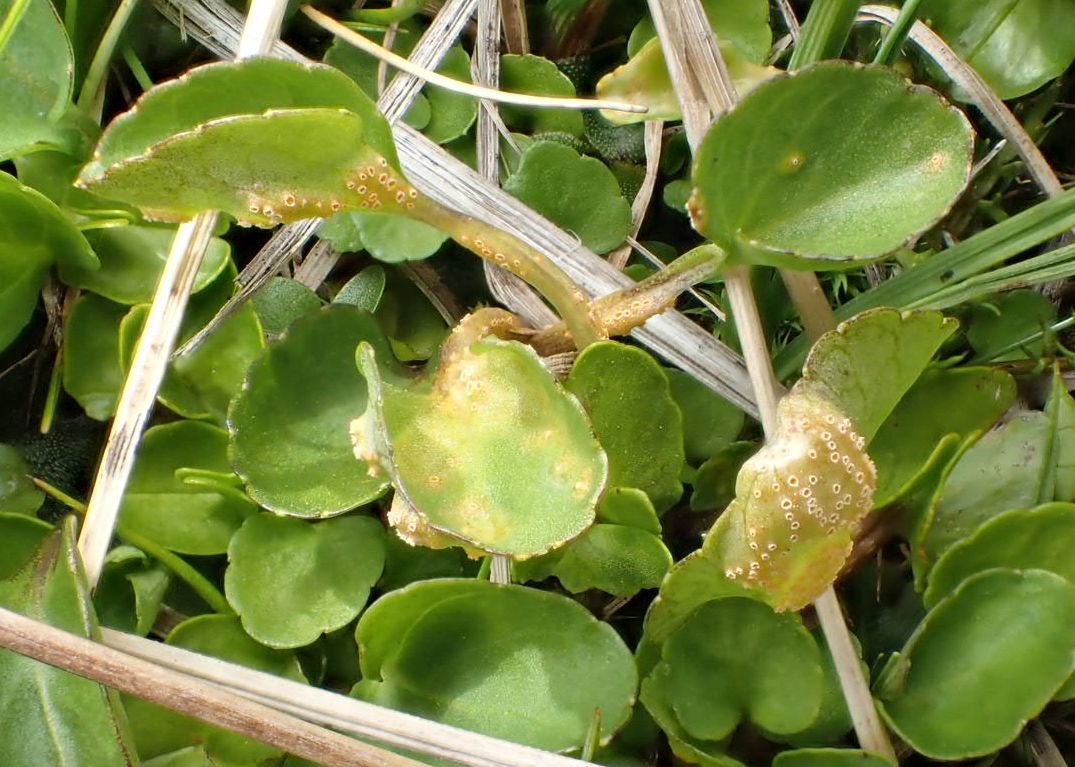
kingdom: Fungi
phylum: Basidiomycota
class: Pucciniomycetes
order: Pucciniales
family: Pucciniaceae
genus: Puccinia
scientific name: Puccinia hederaceae
